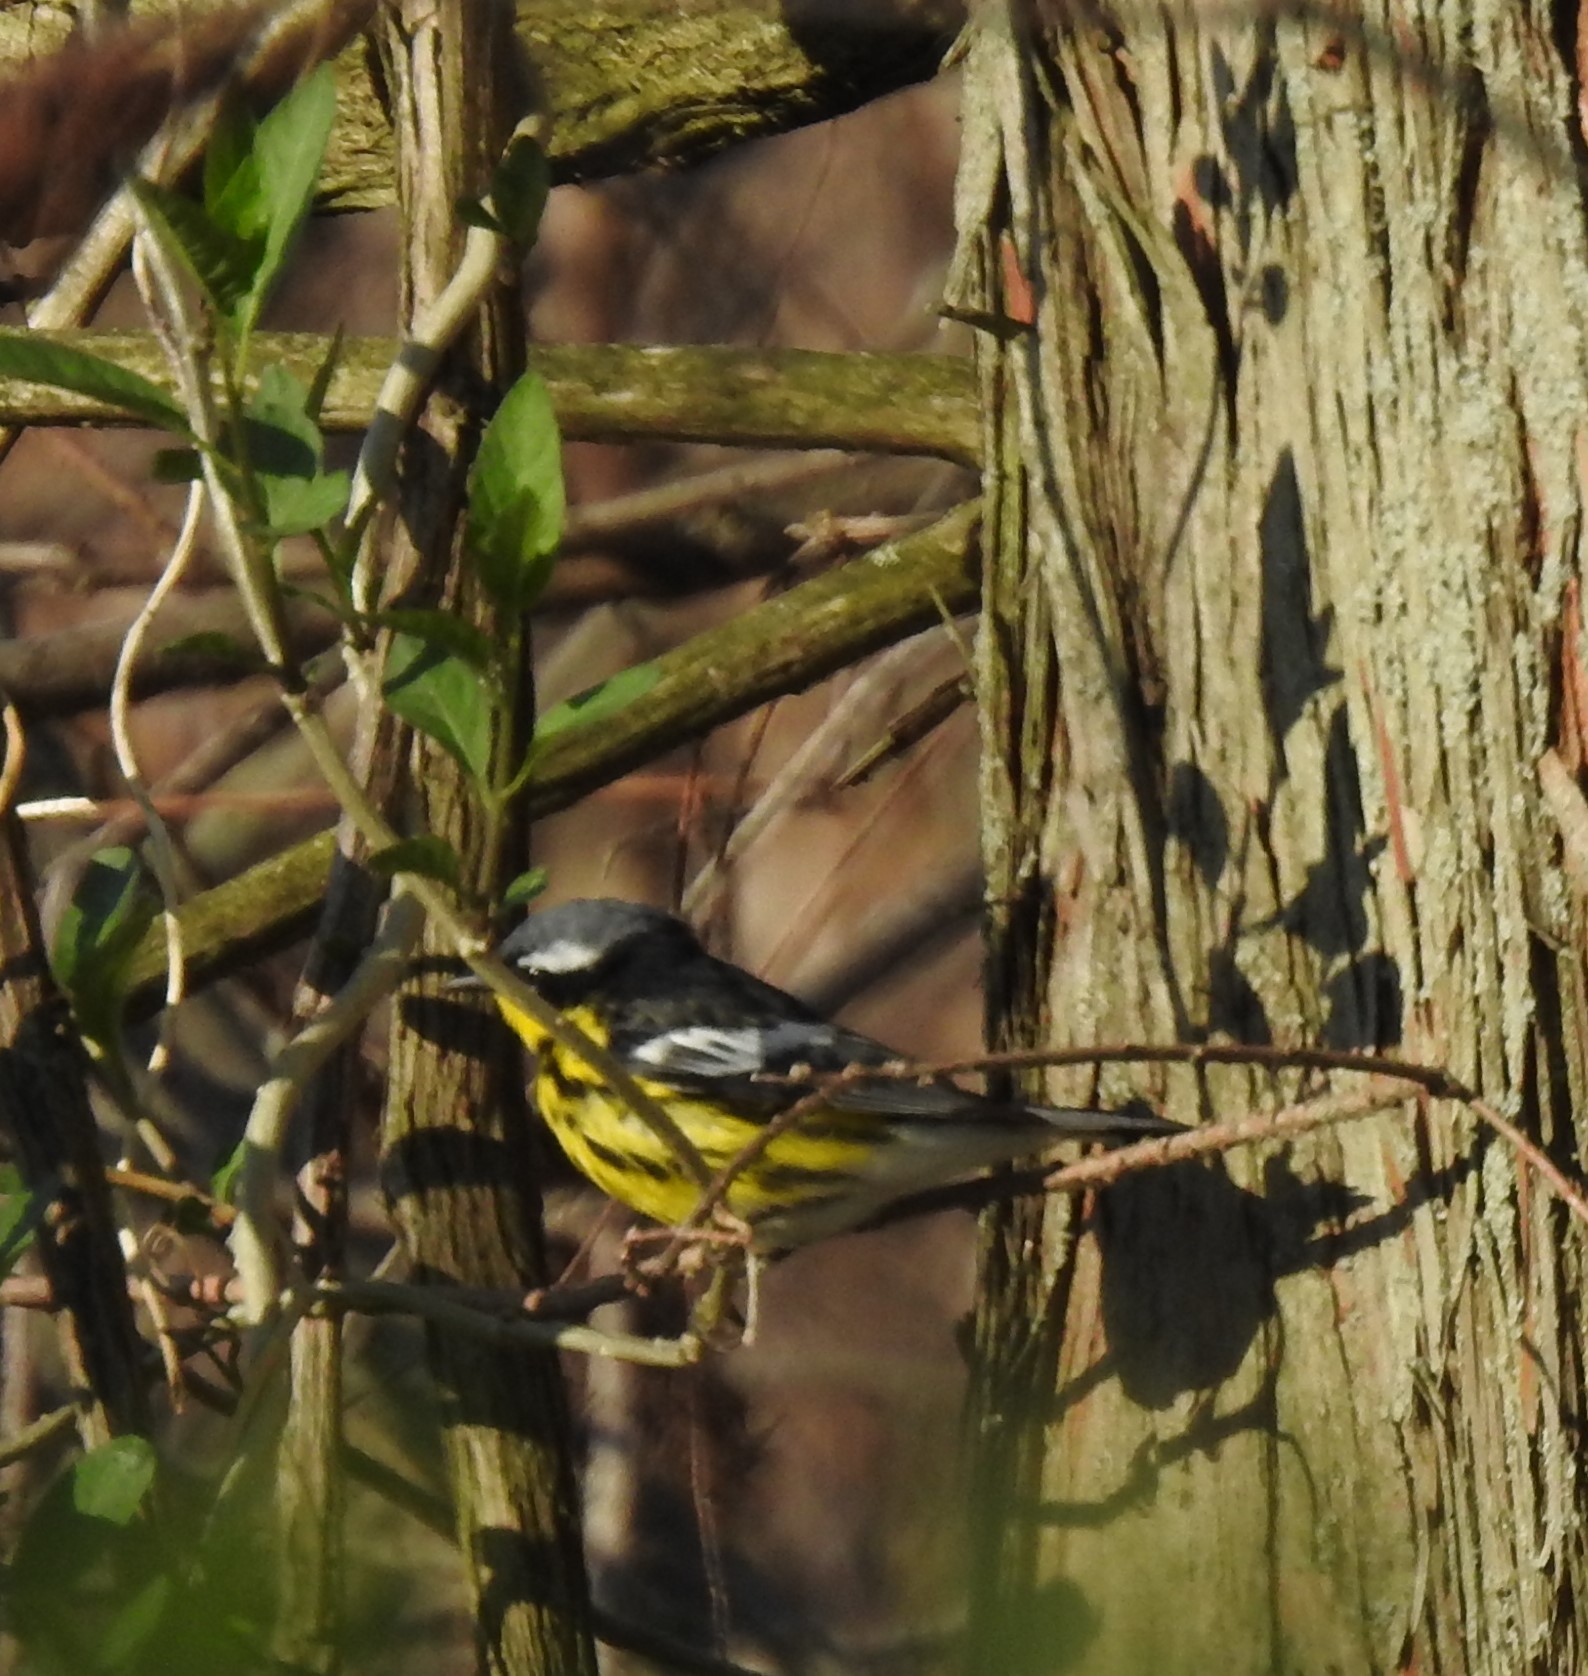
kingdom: Animalia
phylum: Chordata
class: Aves
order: Passeriformes
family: Parulidae
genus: Setophaga
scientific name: Setophaga magnolia
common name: Magnolia warbler
